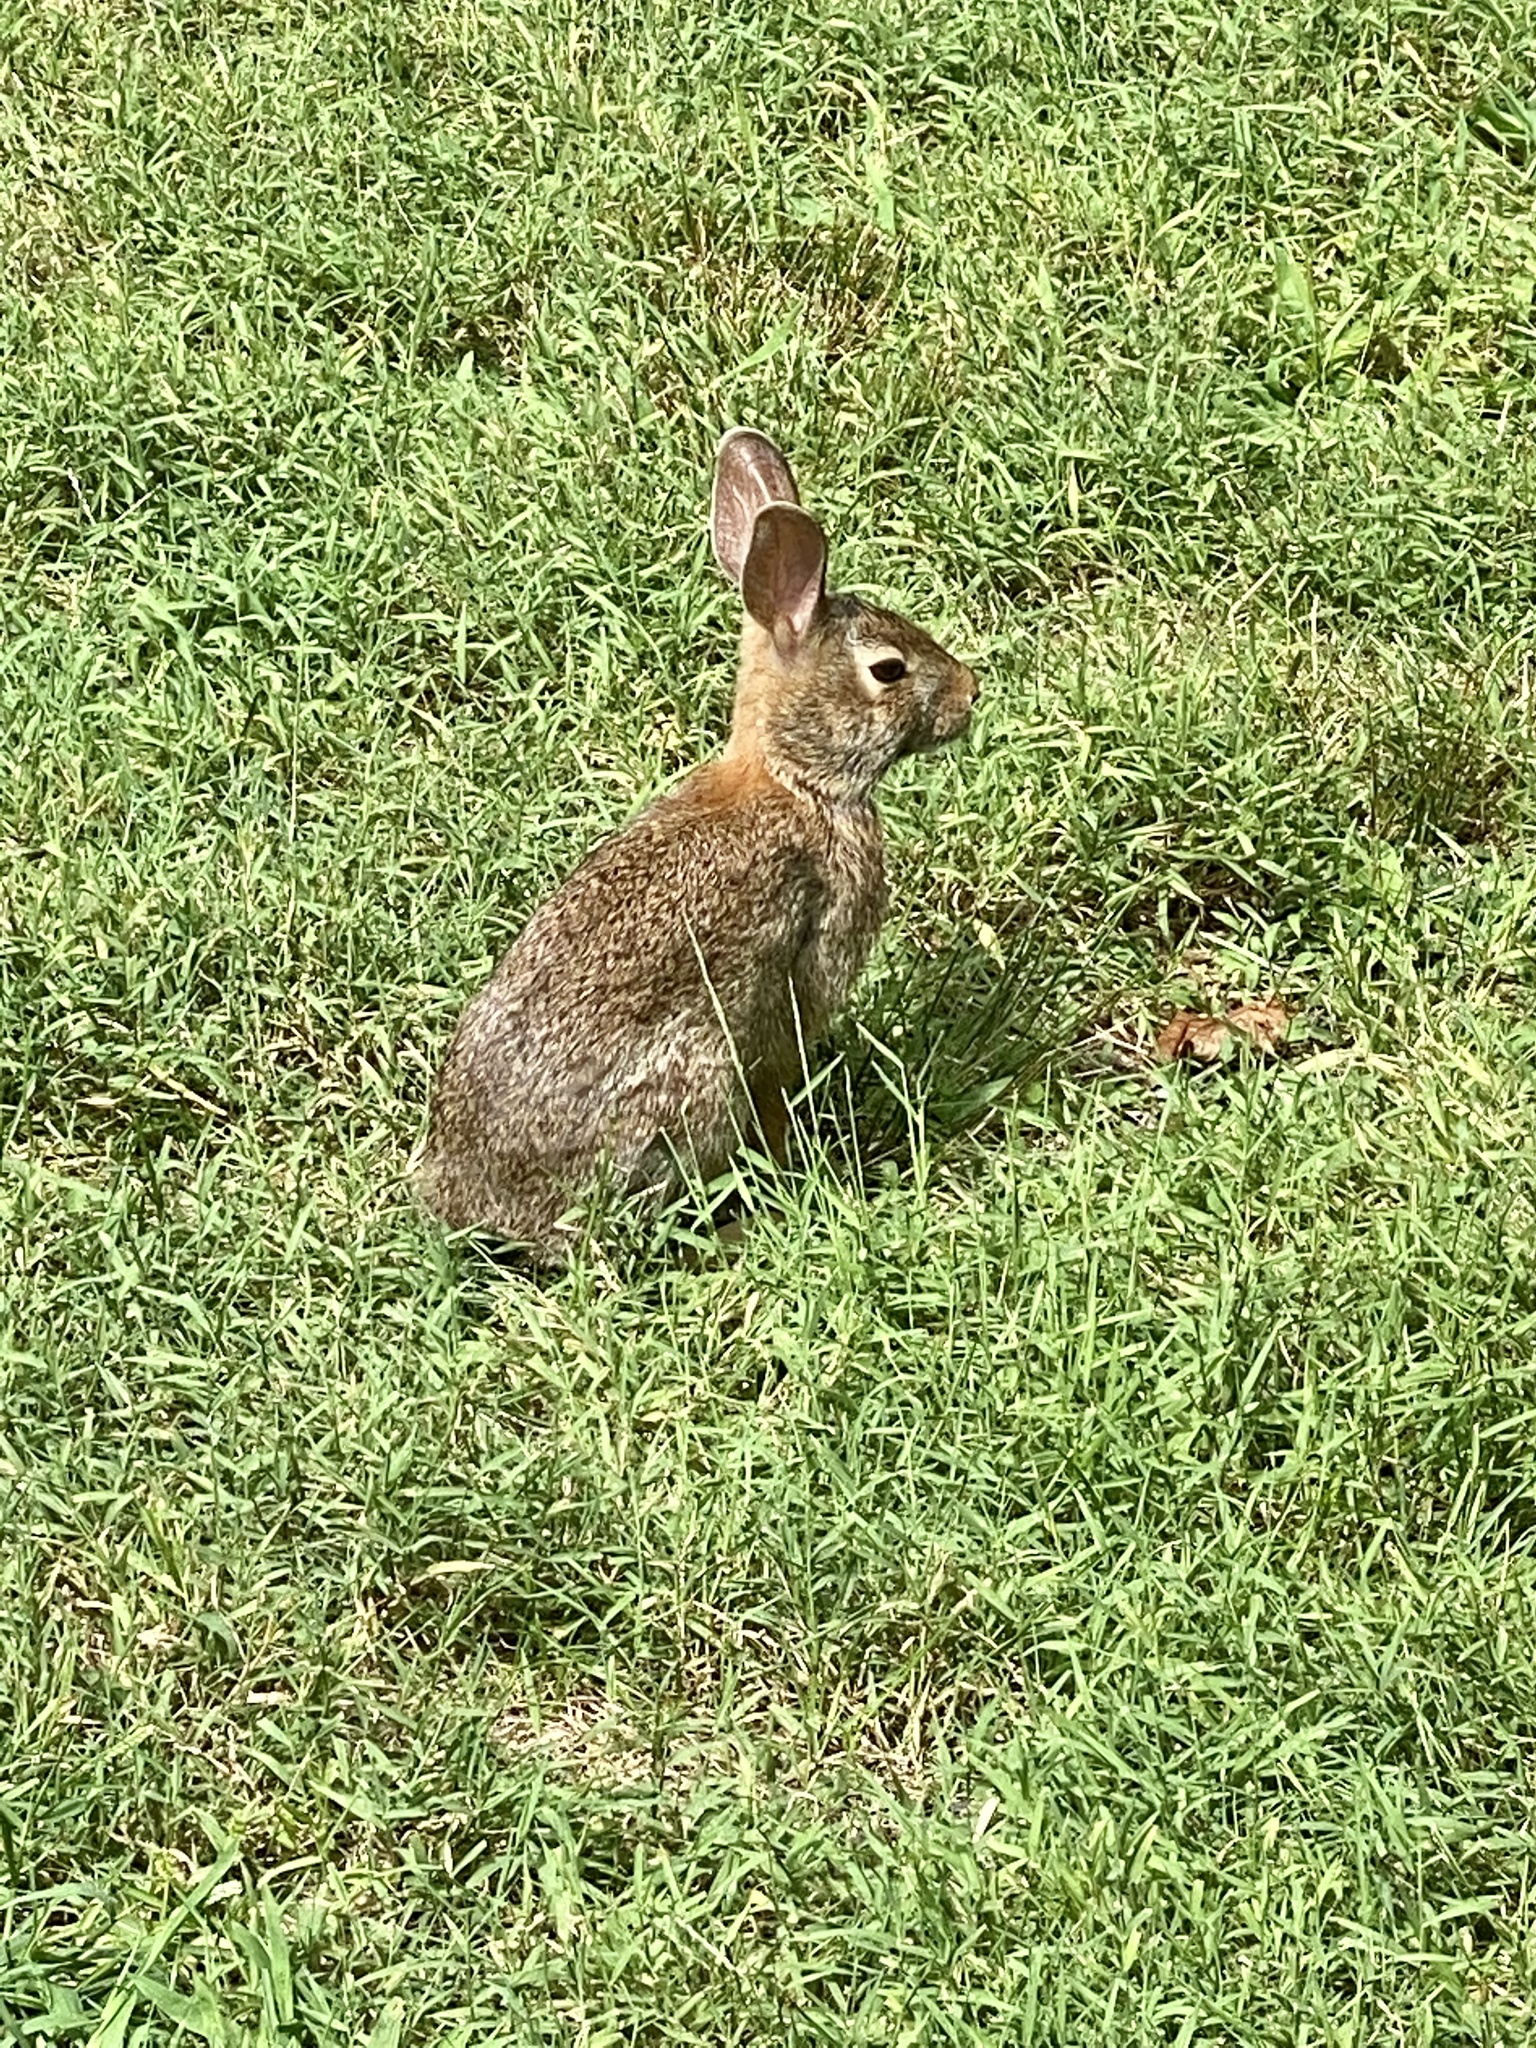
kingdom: Animalia
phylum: Chordata
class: Mammalia
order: Lagomorpha
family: Leporidae
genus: Sylvilagus
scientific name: Sylvilagus floridanus
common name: Eastern cottontail
